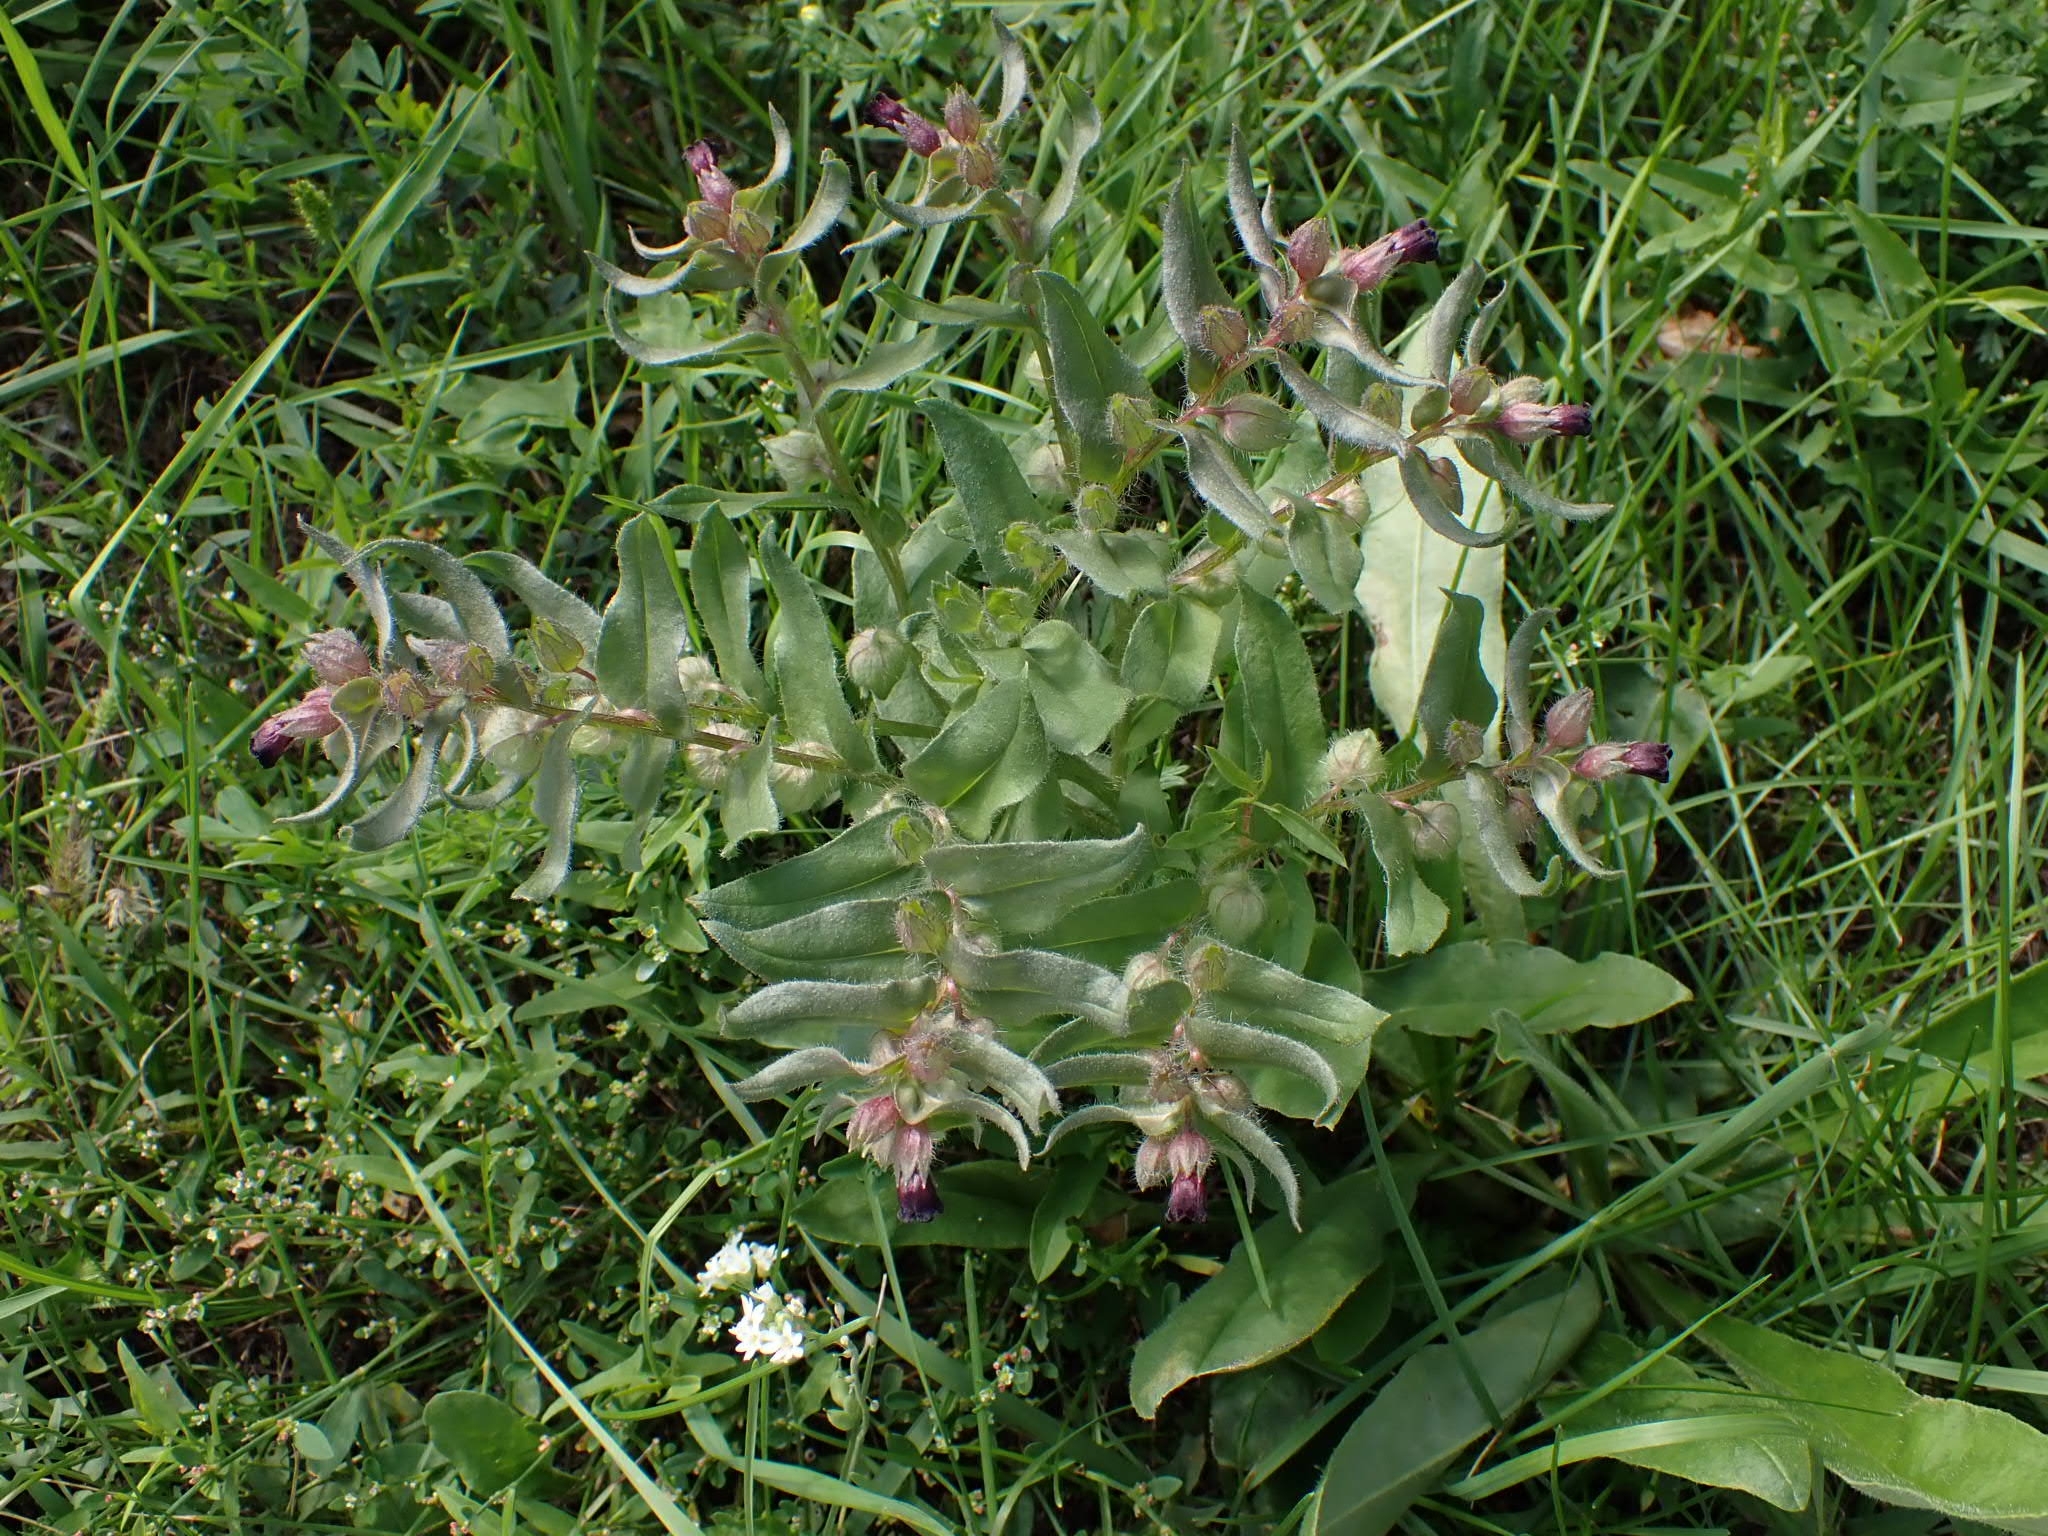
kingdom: Plantae
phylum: Tracheophyta
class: Magnoliopsida
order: Boraginales
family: Boraginaceae
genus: Nonea
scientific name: Nonea pulla
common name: Brown nonea
